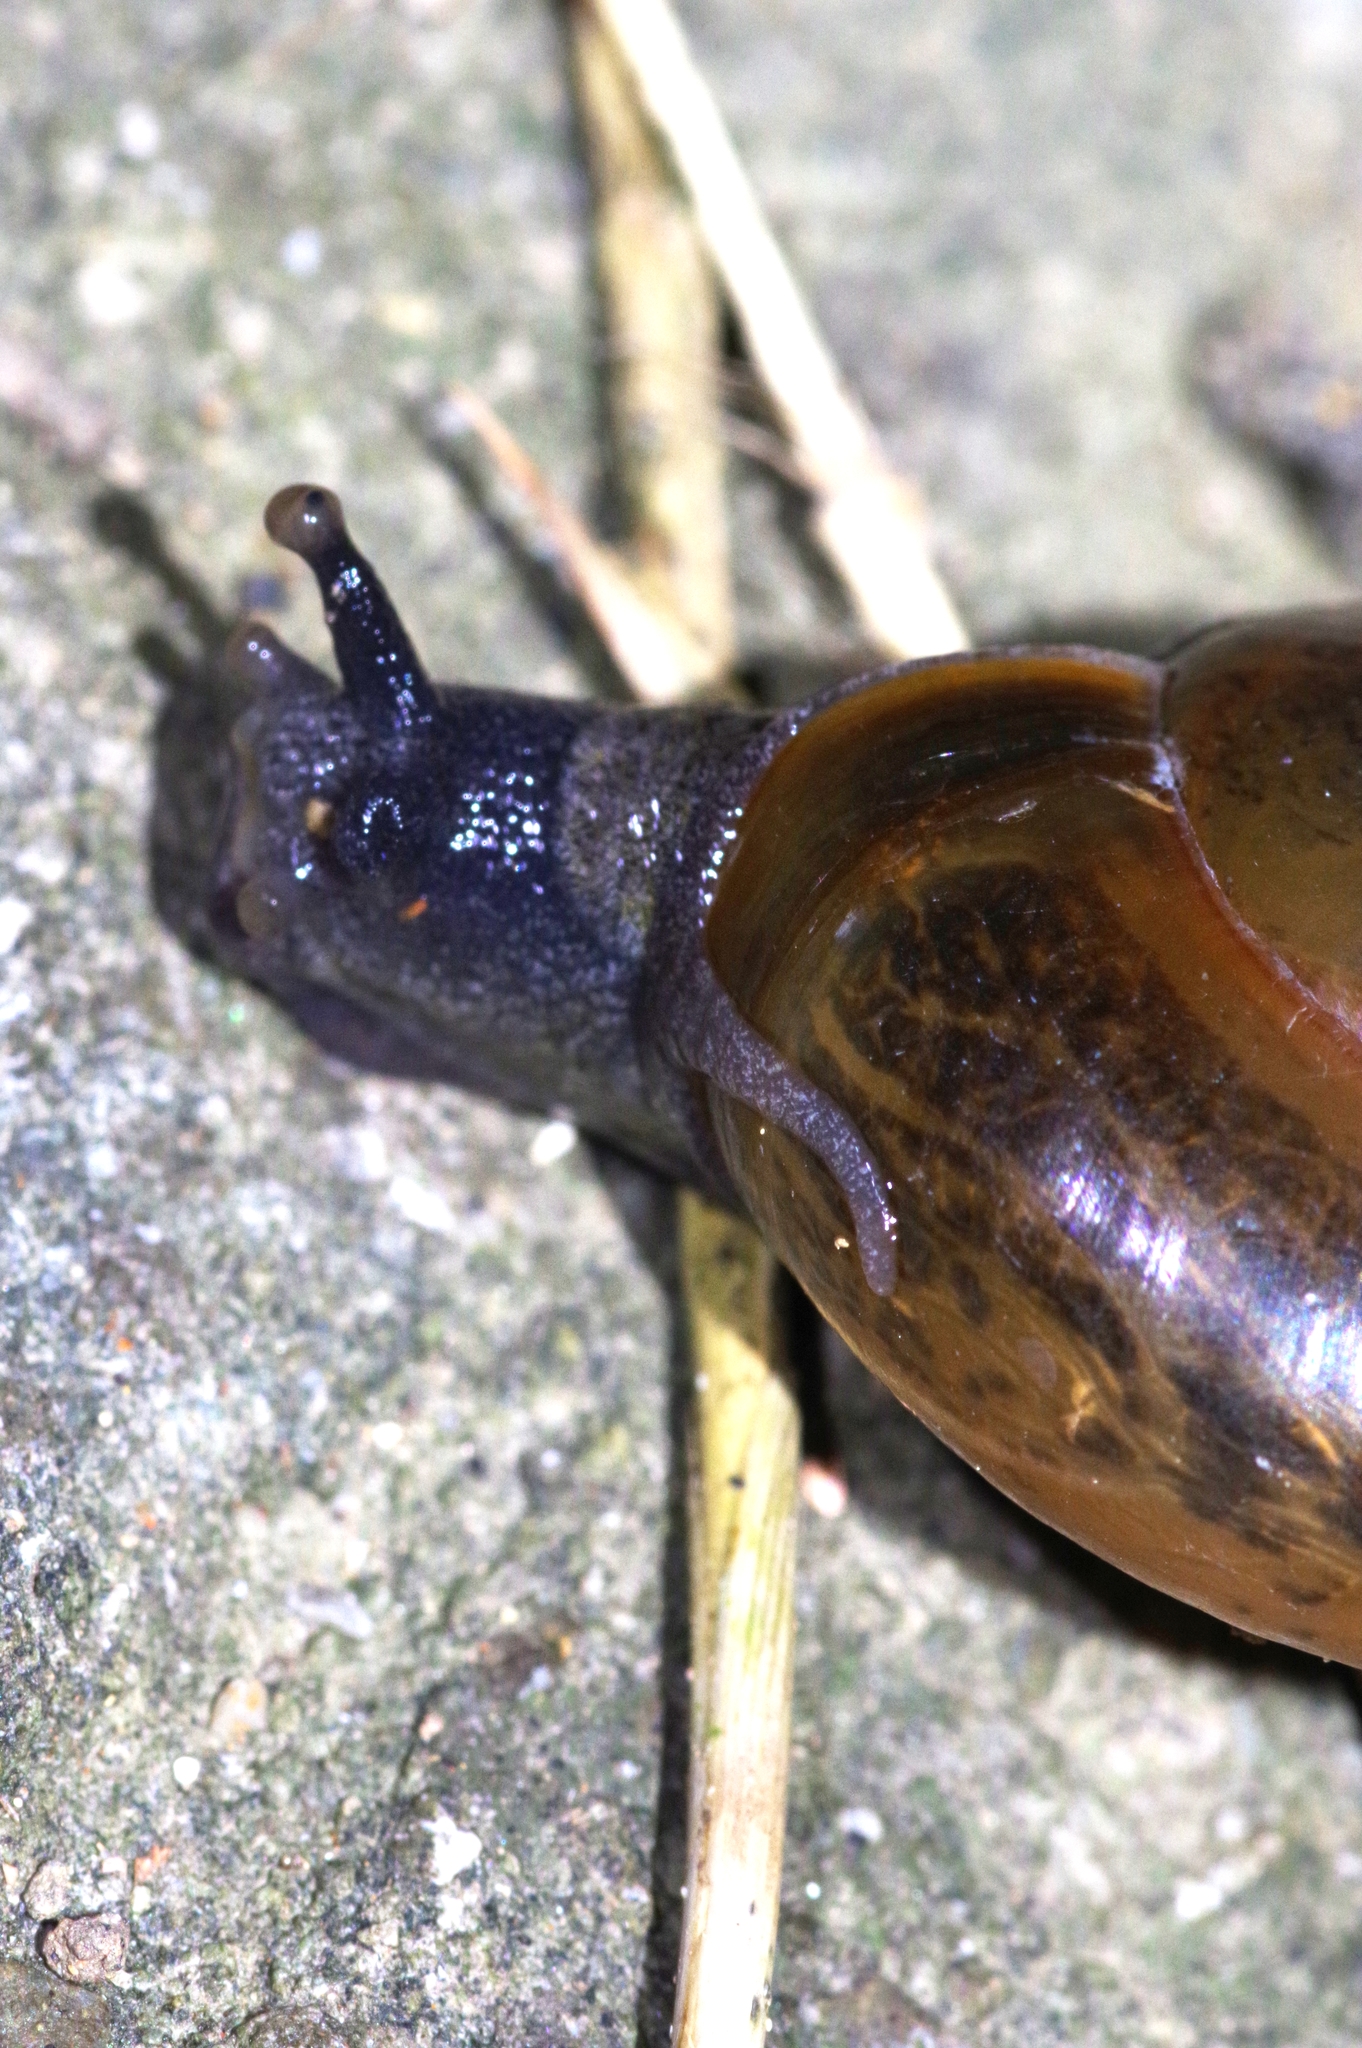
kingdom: Animalia
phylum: Mollusca
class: Gastropoda
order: Stylommatophora
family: Ariophantidae
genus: Macrochlamys
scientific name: Macrochlamys indica
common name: Horntail snail
